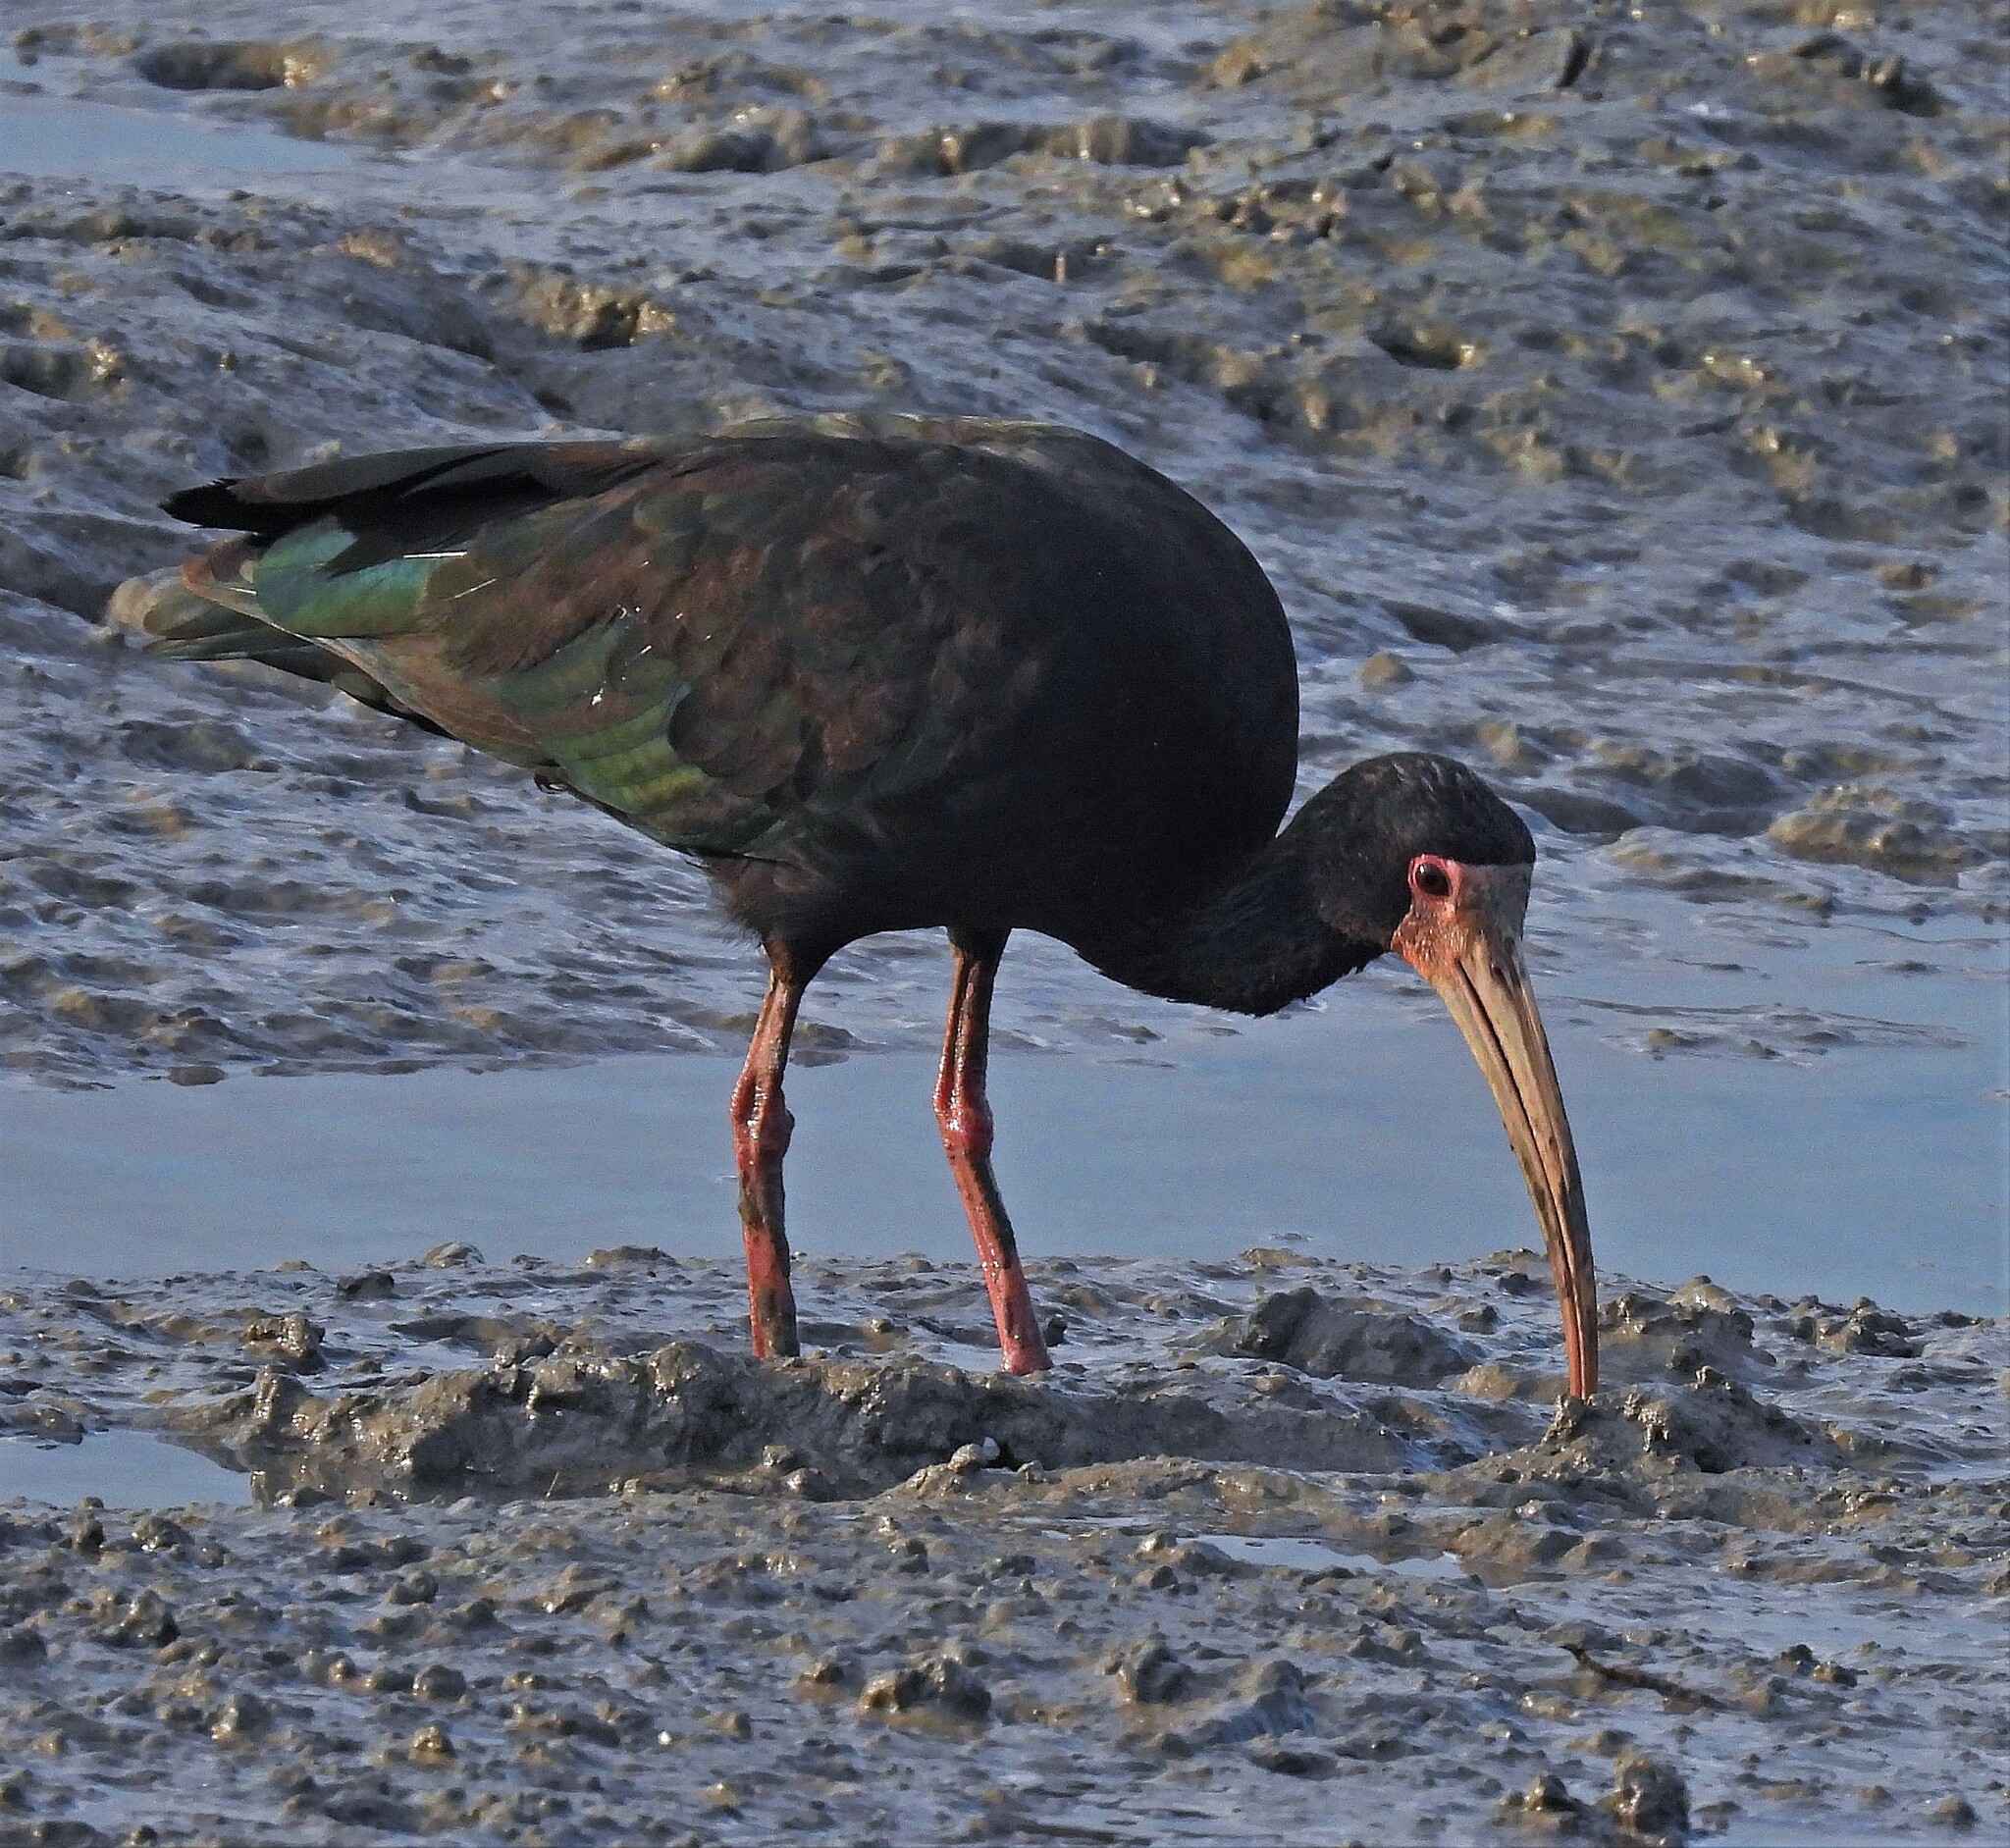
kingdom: Animalia
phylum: Chordata
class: Aves
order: Pelecaniformes
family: Threskiornithidae
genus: Phimosus
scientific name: Phimosus infuscatus
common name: Bare-faced ibis
